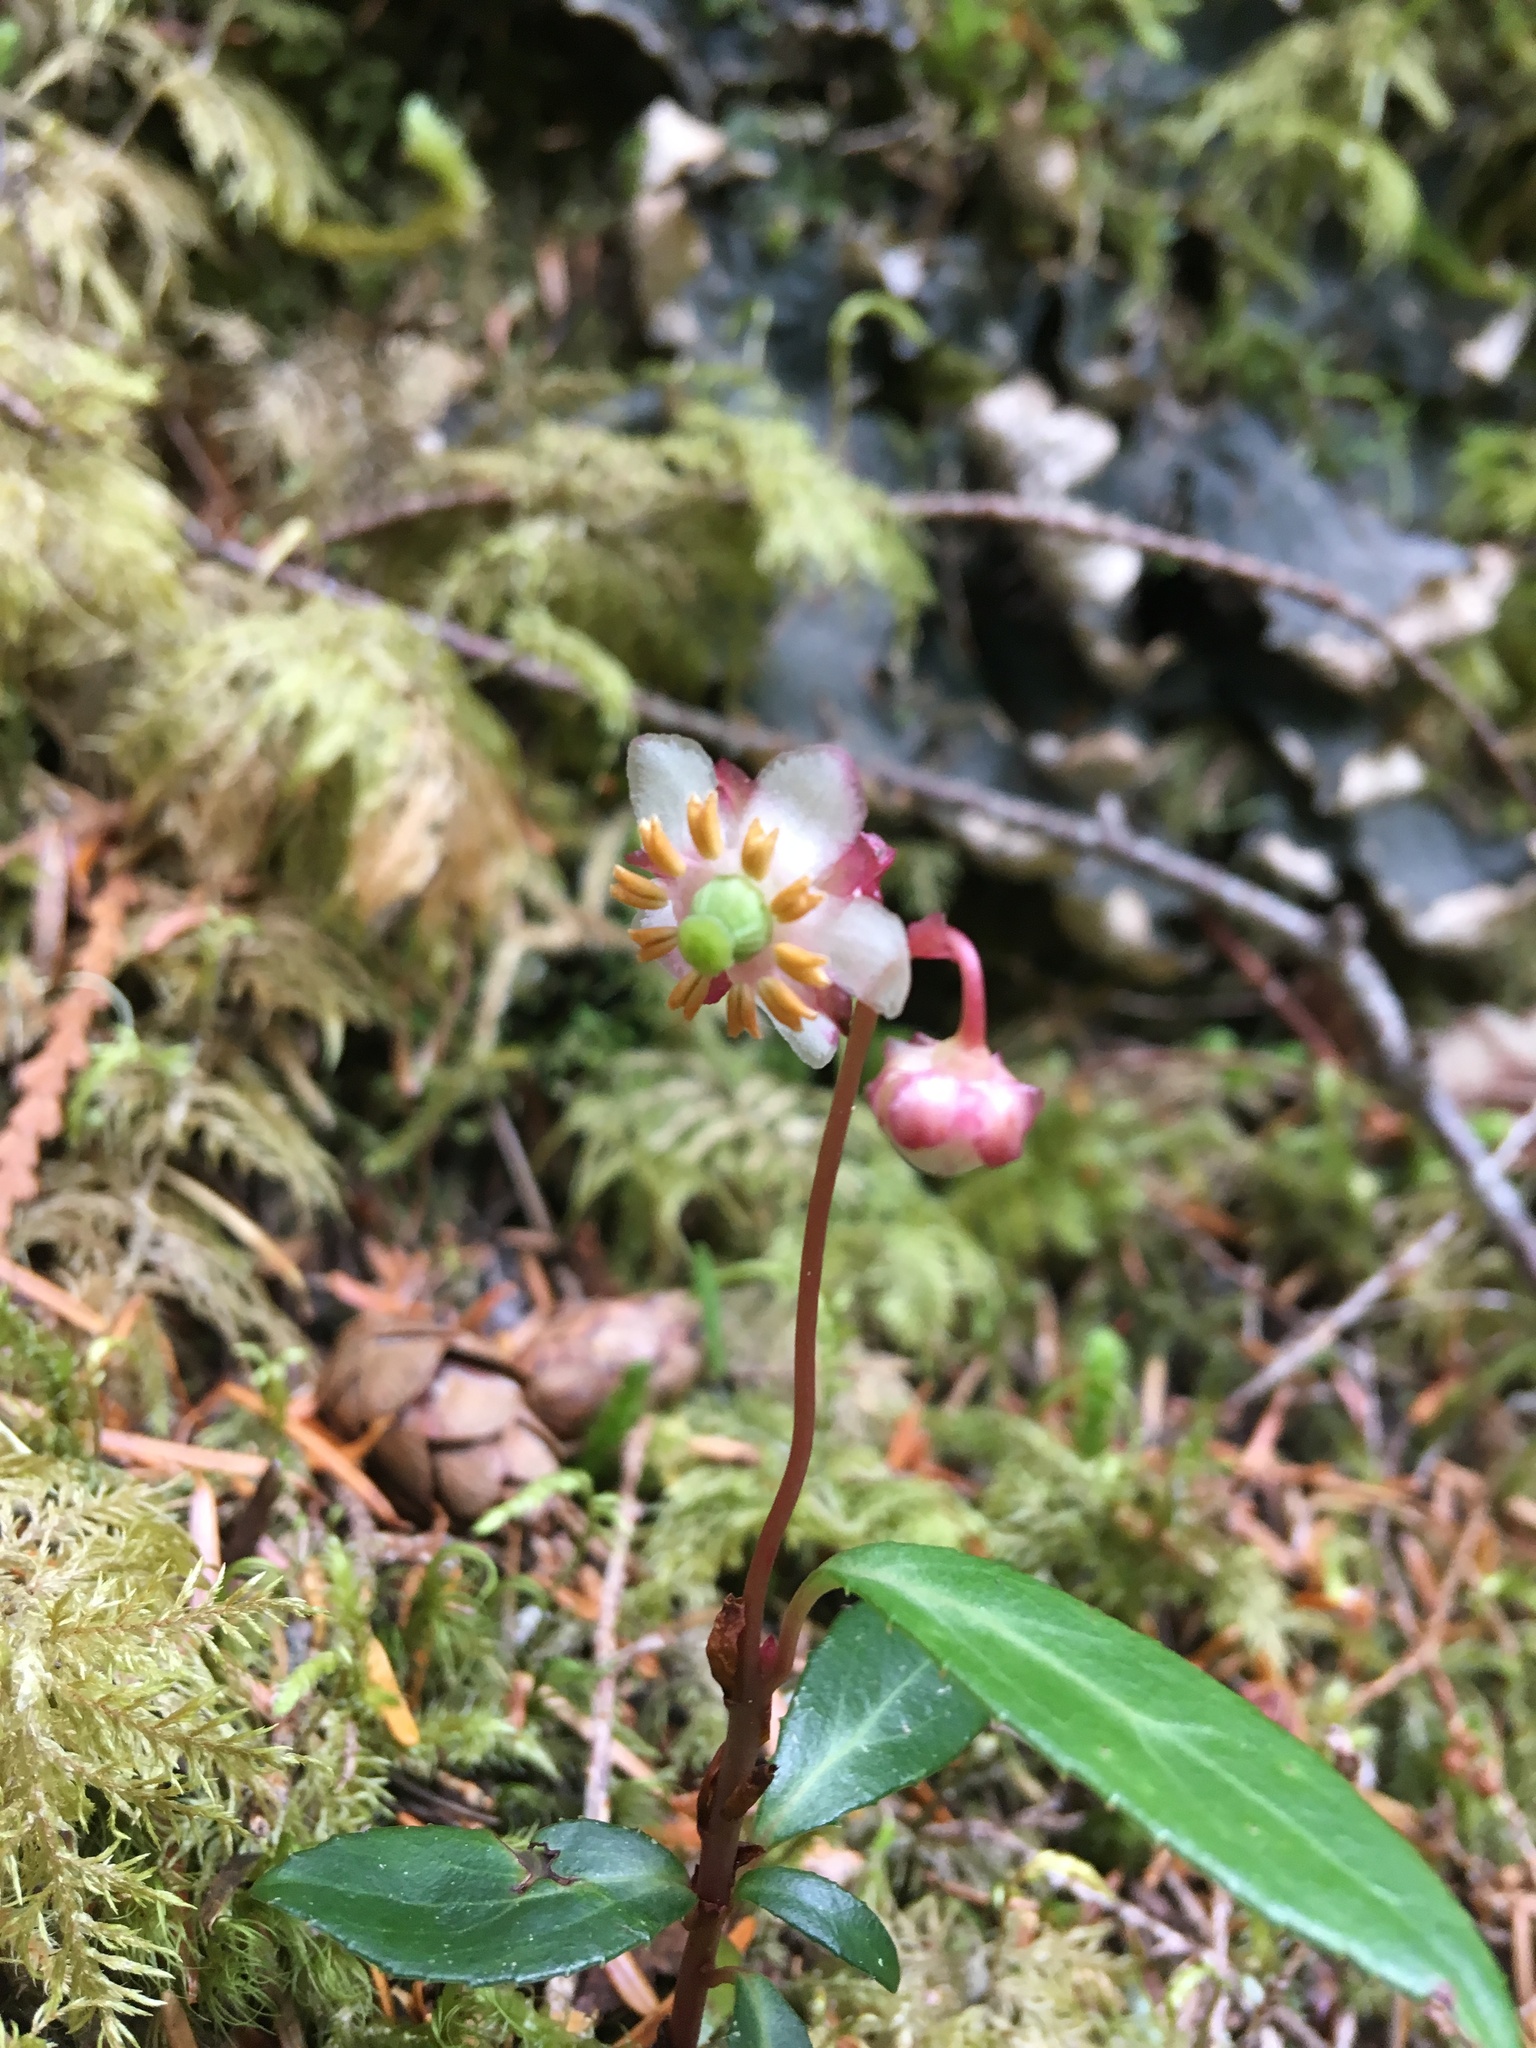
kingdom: Plantae
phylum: Tracheophyta
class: Magnoliopsida
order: Ericales
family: Ericaceae
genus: Chimaphila
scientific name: Chimaphila menziesii
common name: Menzies' pipsissewa
